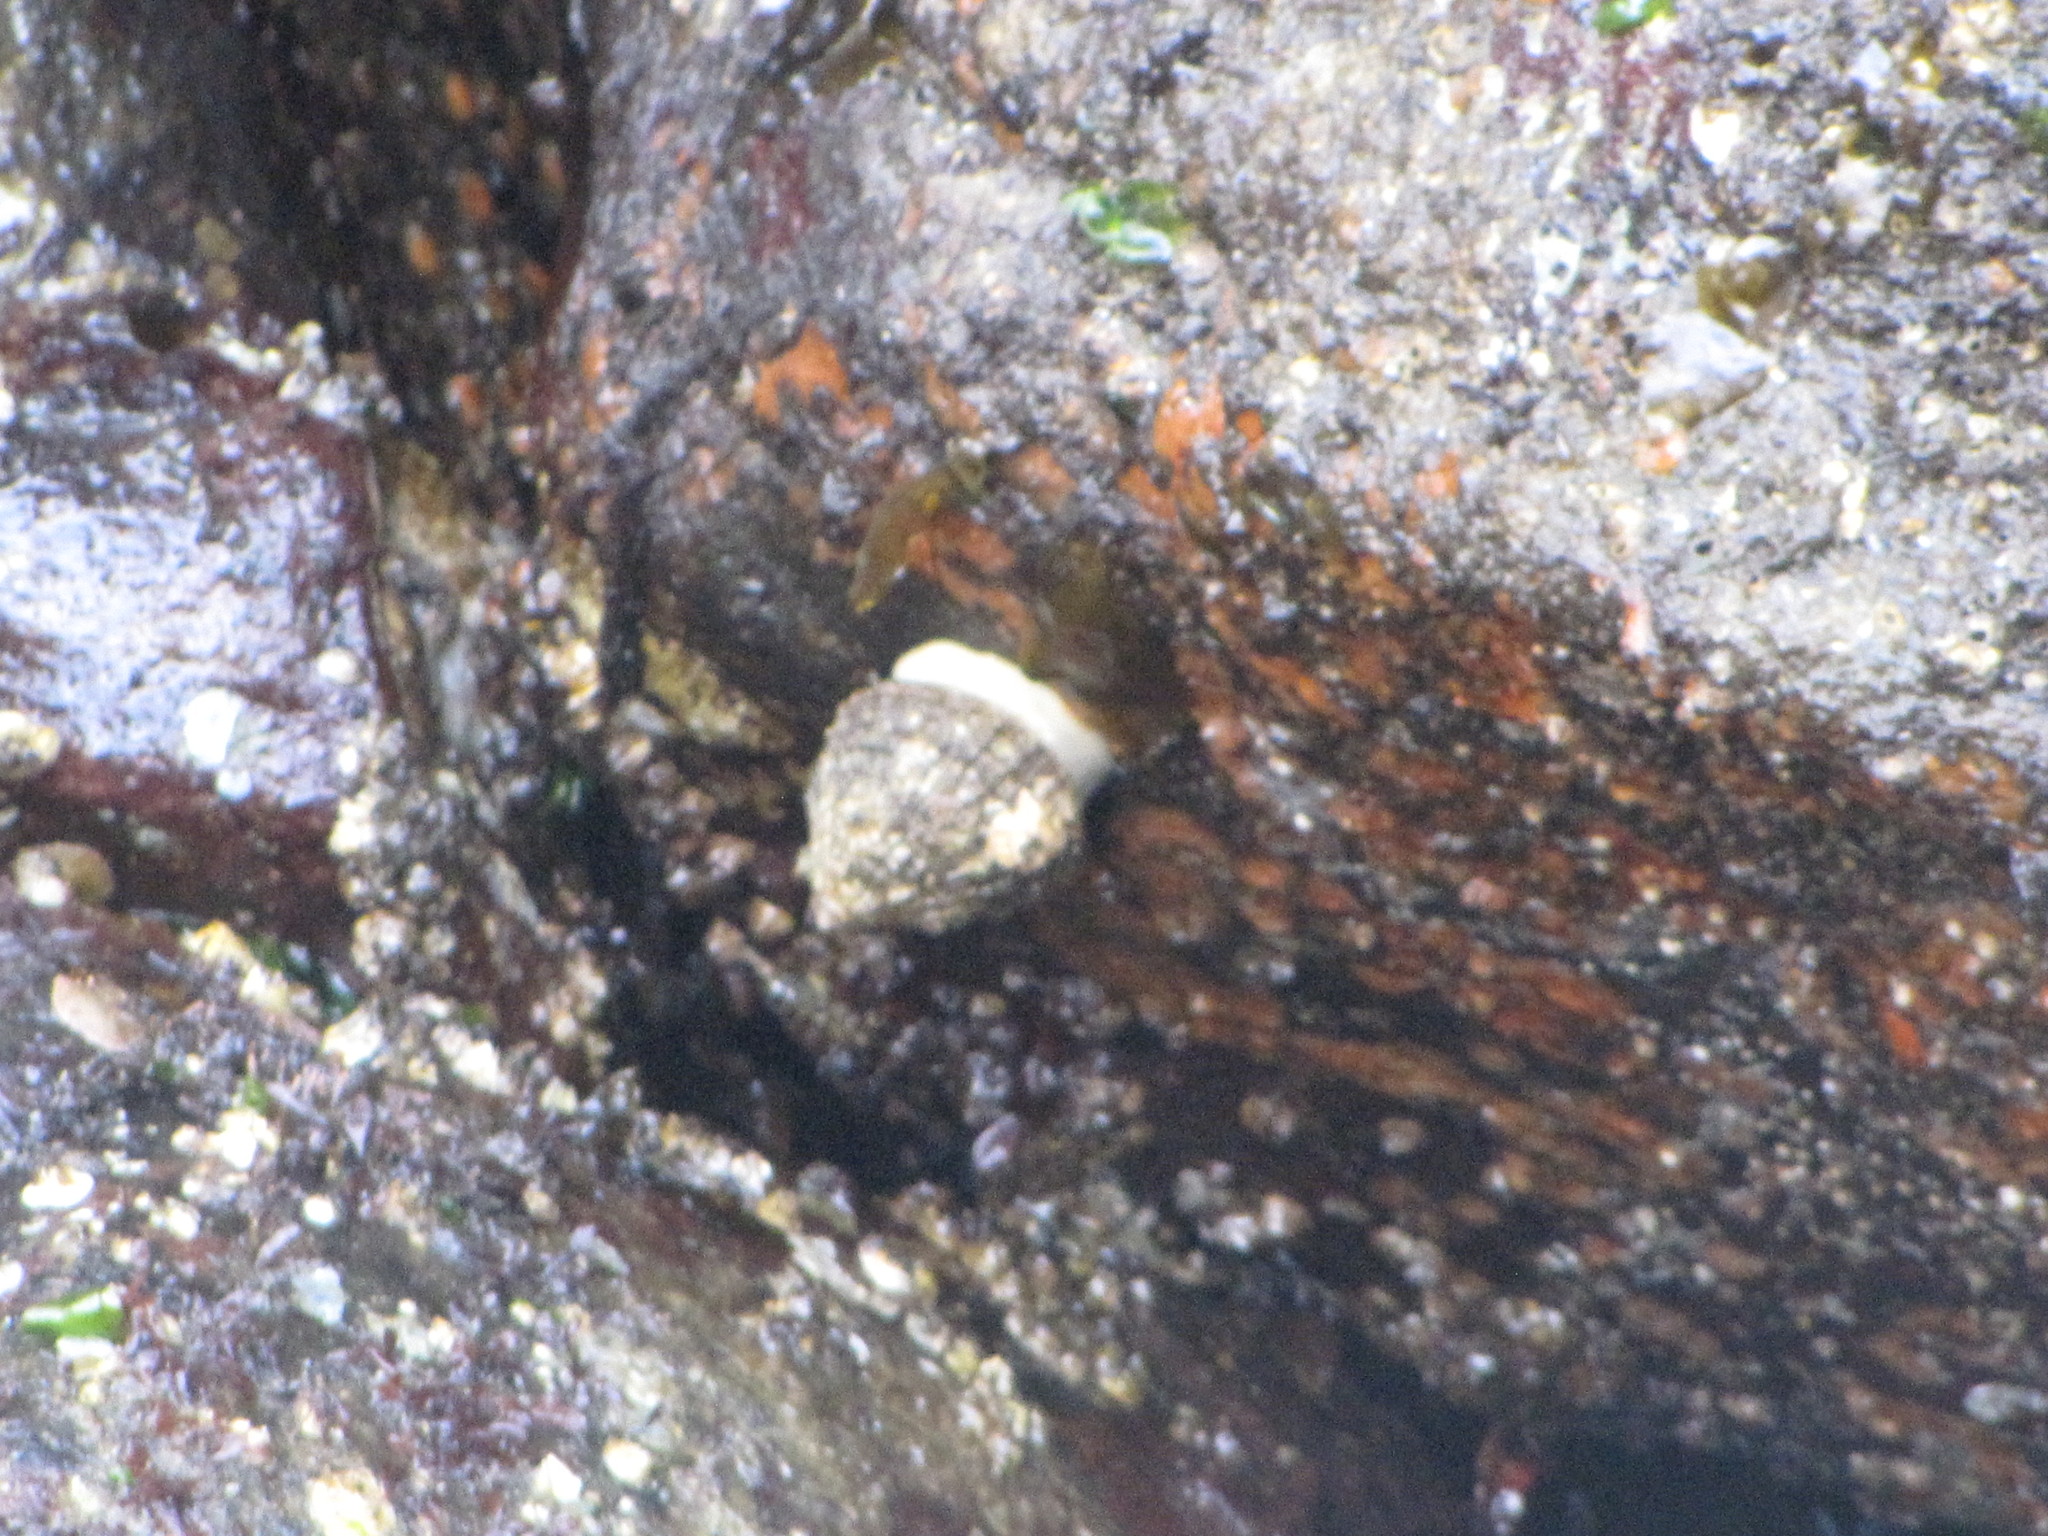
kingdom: Animalia
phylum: Mollusca
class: Gastropoda
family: Acmaeidae
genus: Acmaea
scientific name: Acmaea mitra
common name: Pacific white cap limpet
